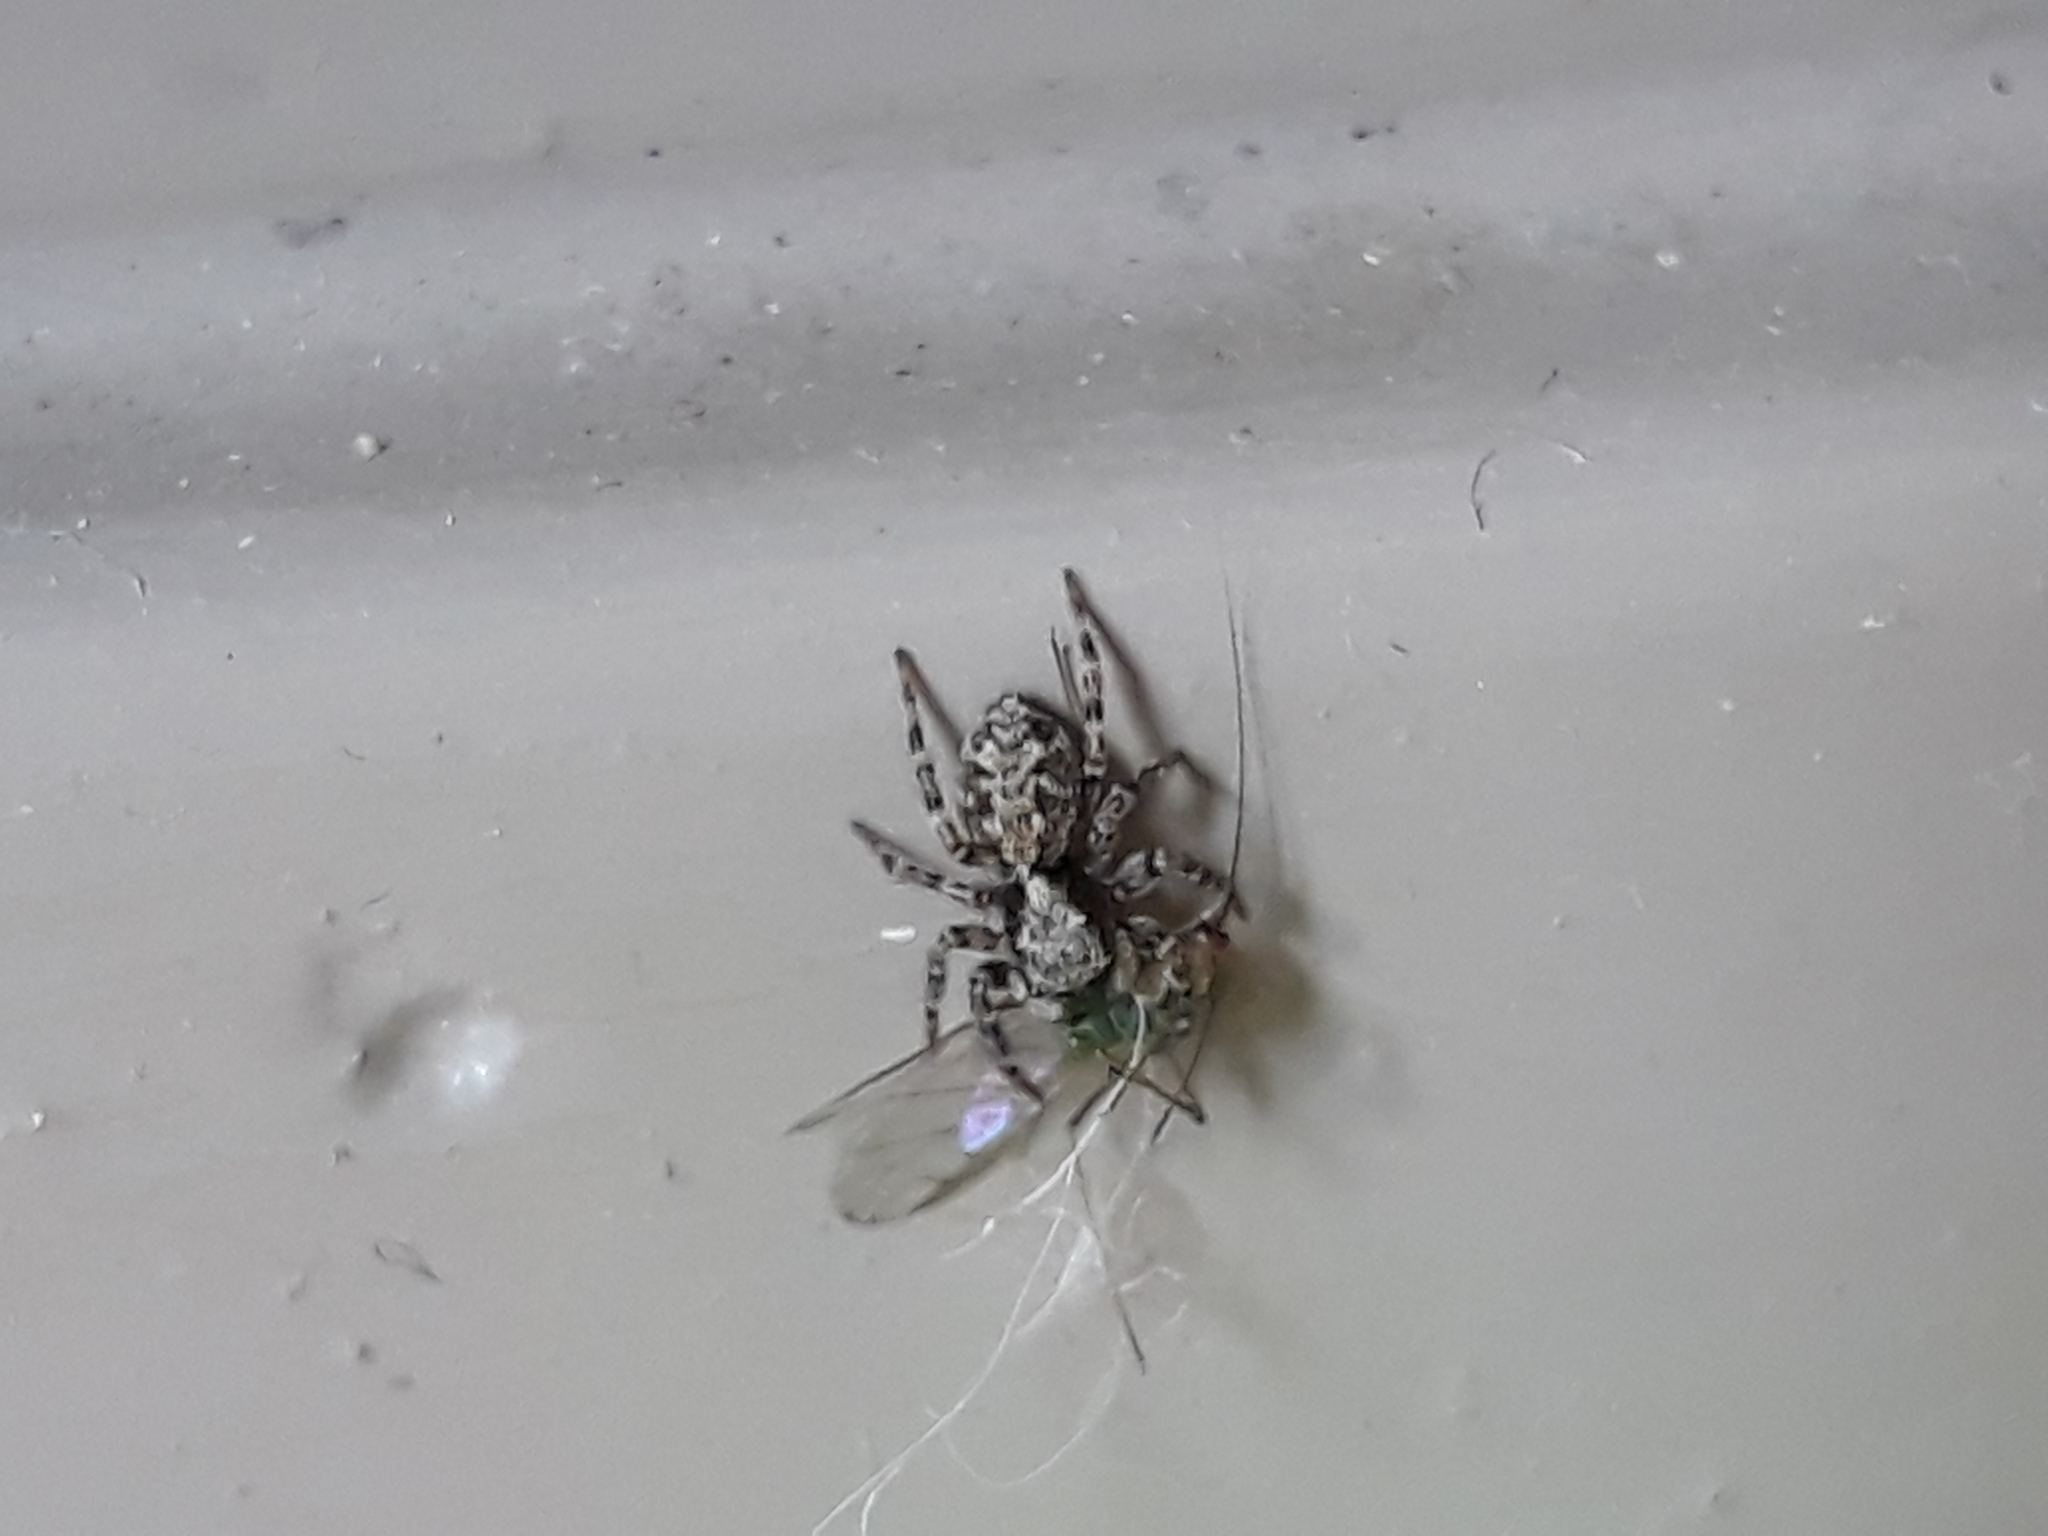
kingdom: Animalia
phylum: Arthropoda
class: Arachnida
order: Araneae
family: Salticidae
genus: Pseudeuophrys
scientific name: Pseudeuophrys lanigera
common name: Jumping spider
